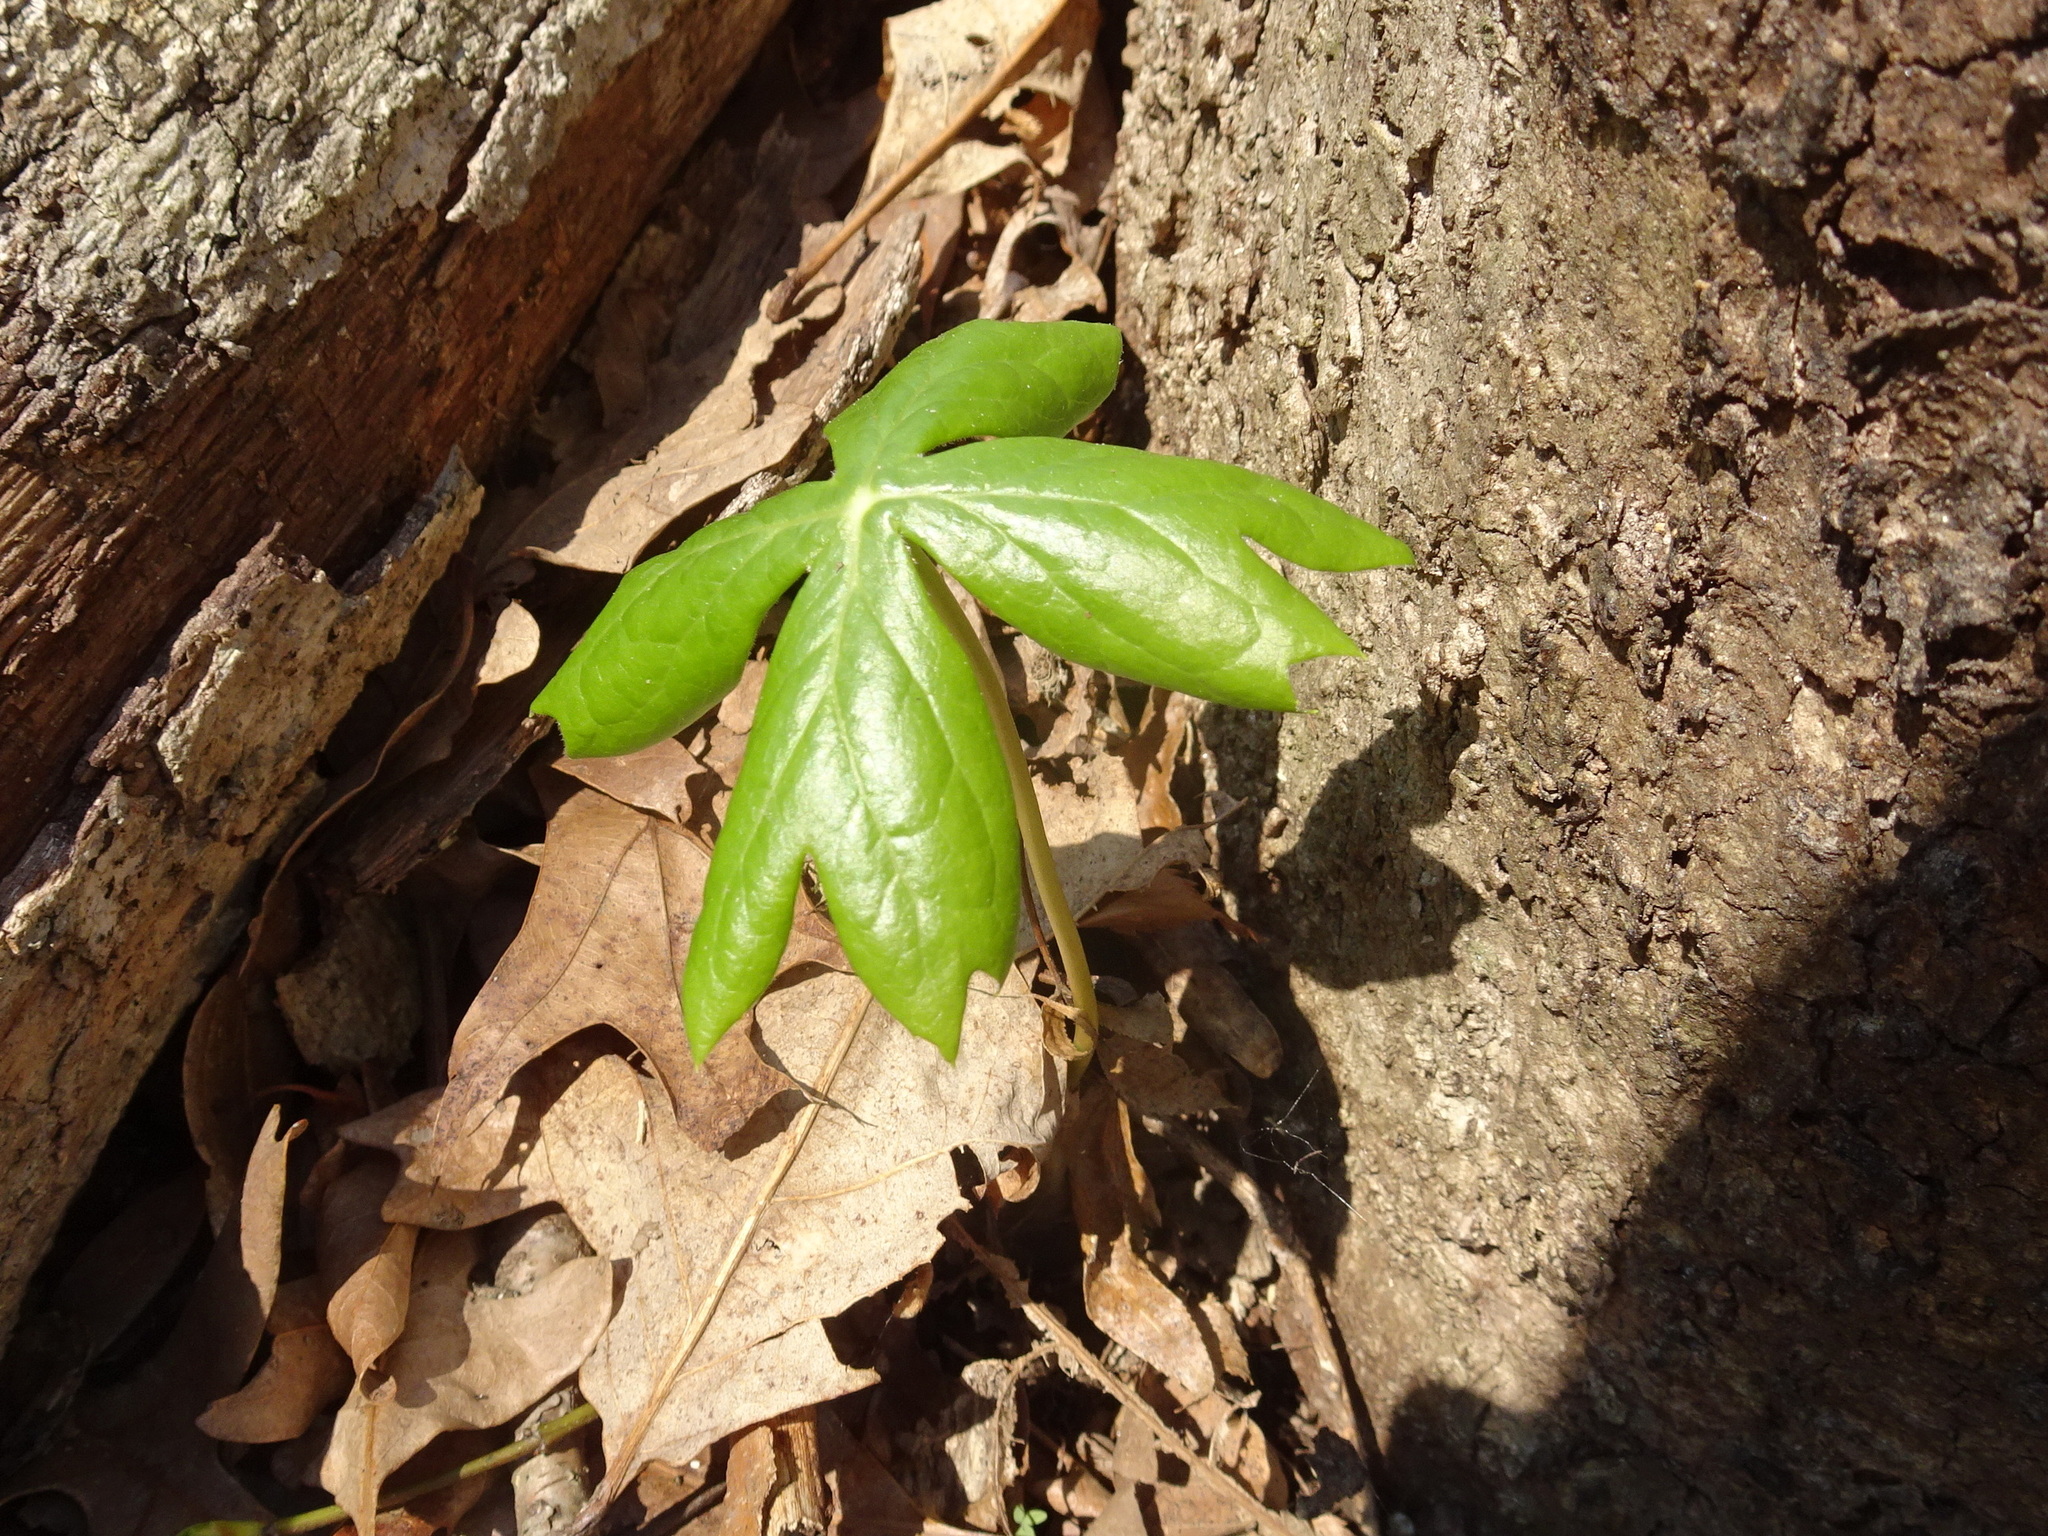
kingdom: Plantae
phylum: Tracheophyta
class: Magnoliopsida
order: Ranunculales
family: Berberidaceae
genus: Podophyllum
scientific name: Podophyllum peltatum
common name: Wild mandrake
